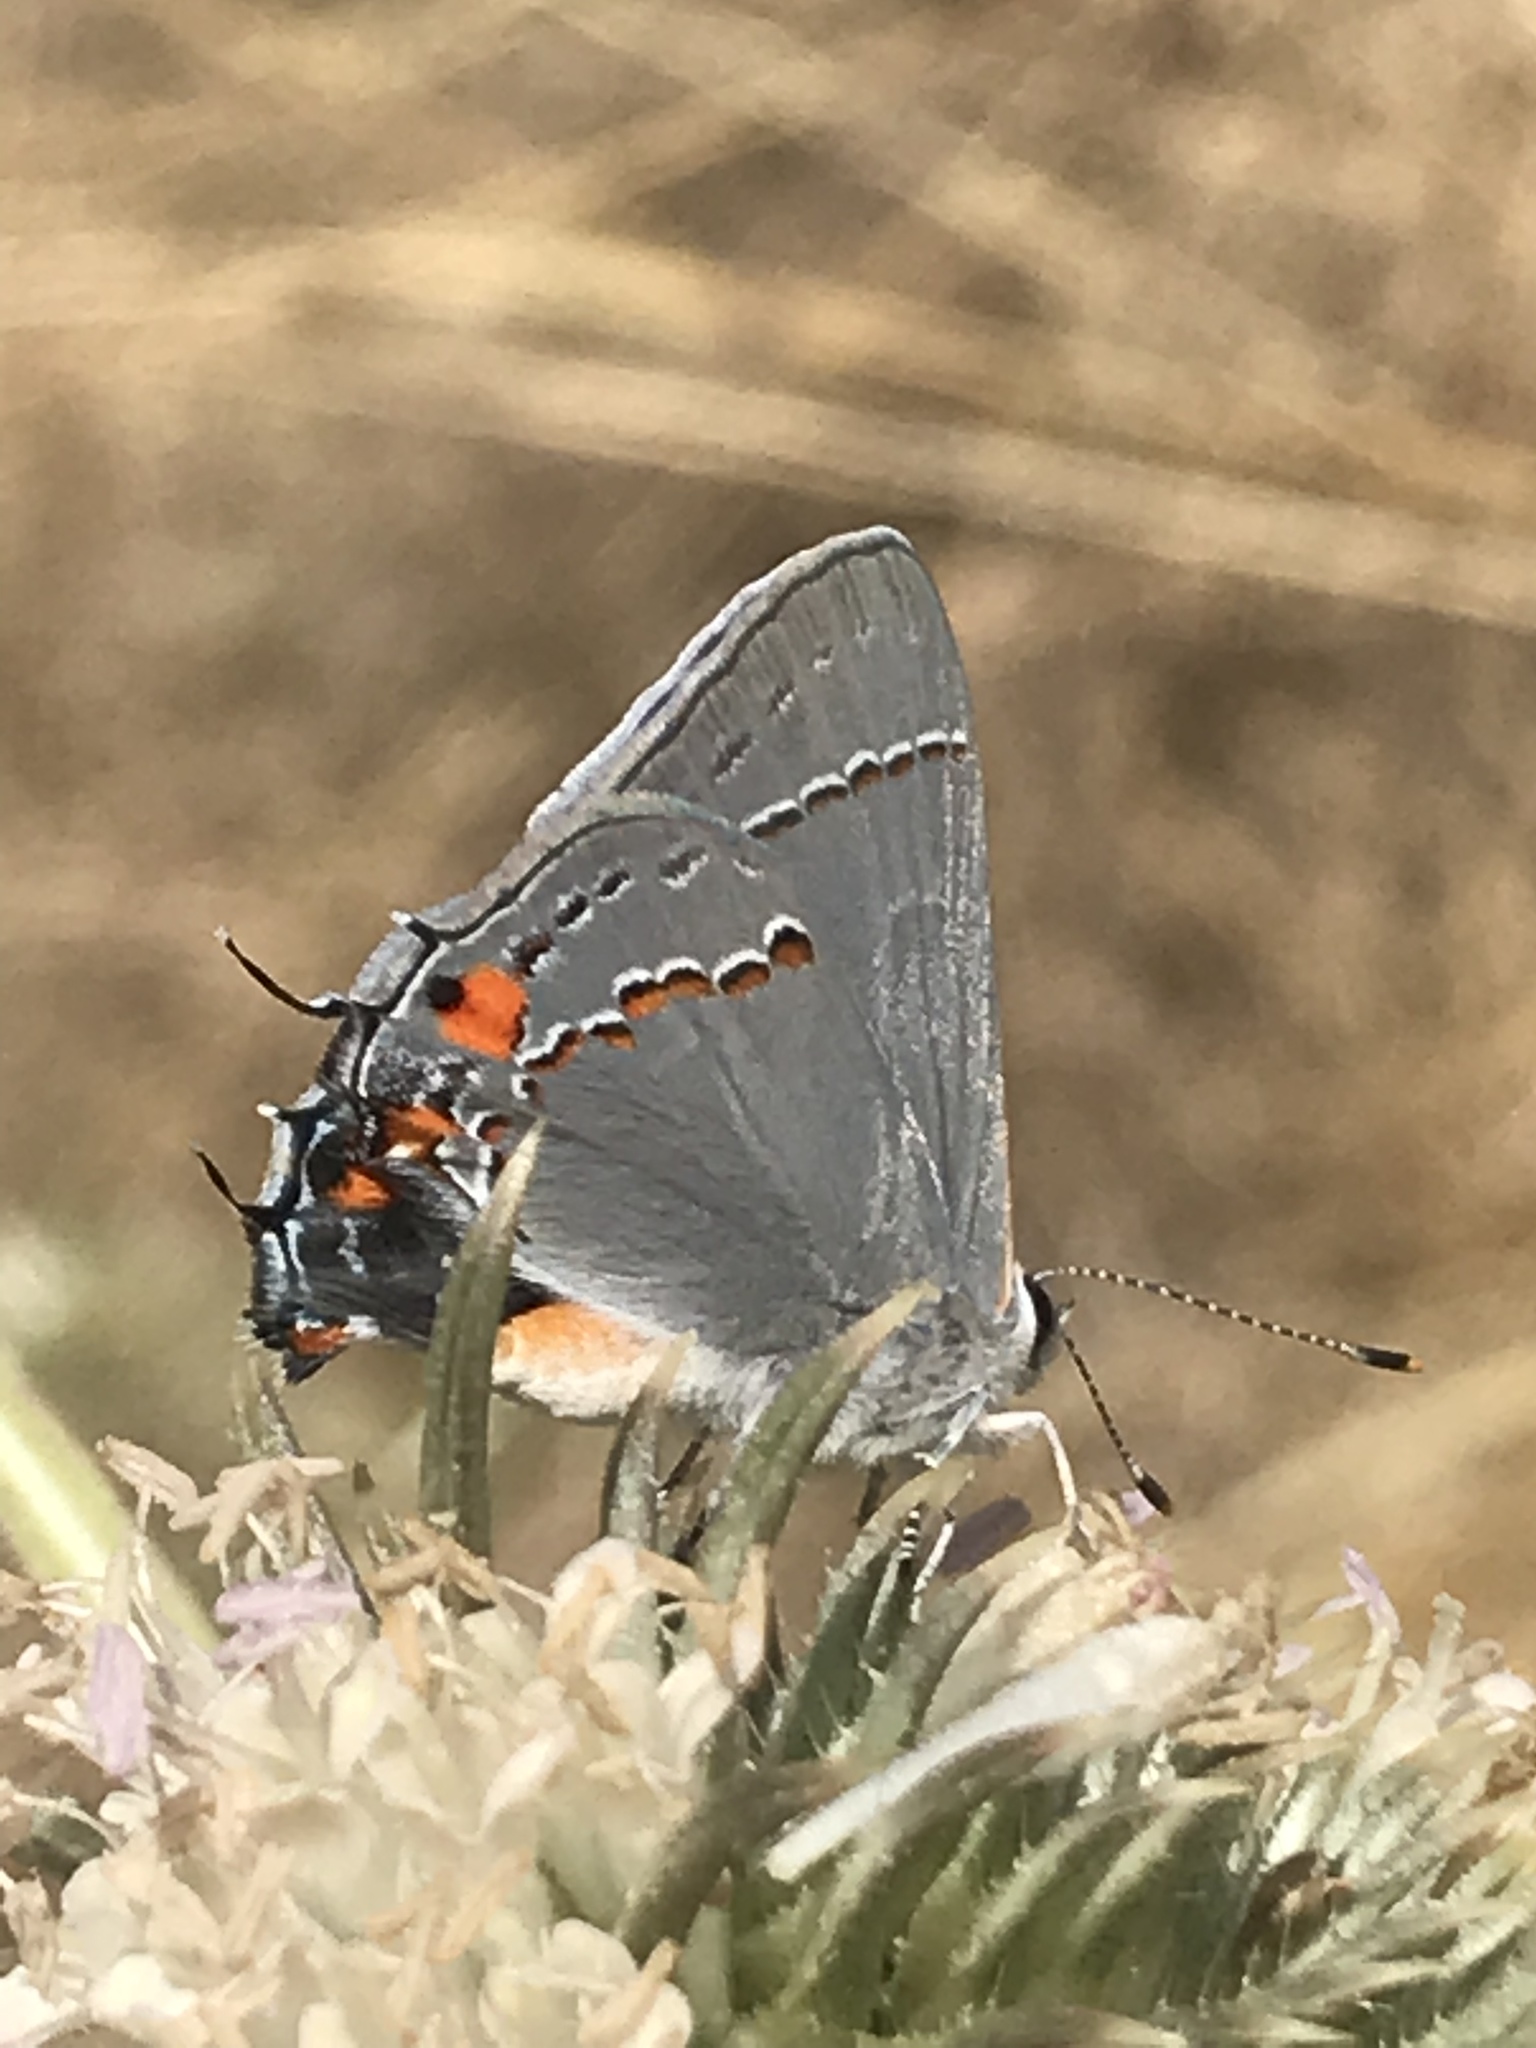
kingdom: Animalia
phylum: Arthropoda
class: Insecta
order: Lepidoptera
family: Lycaenidae
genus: Strymon
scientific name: Strymon melinus
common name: Gray hairstreak
